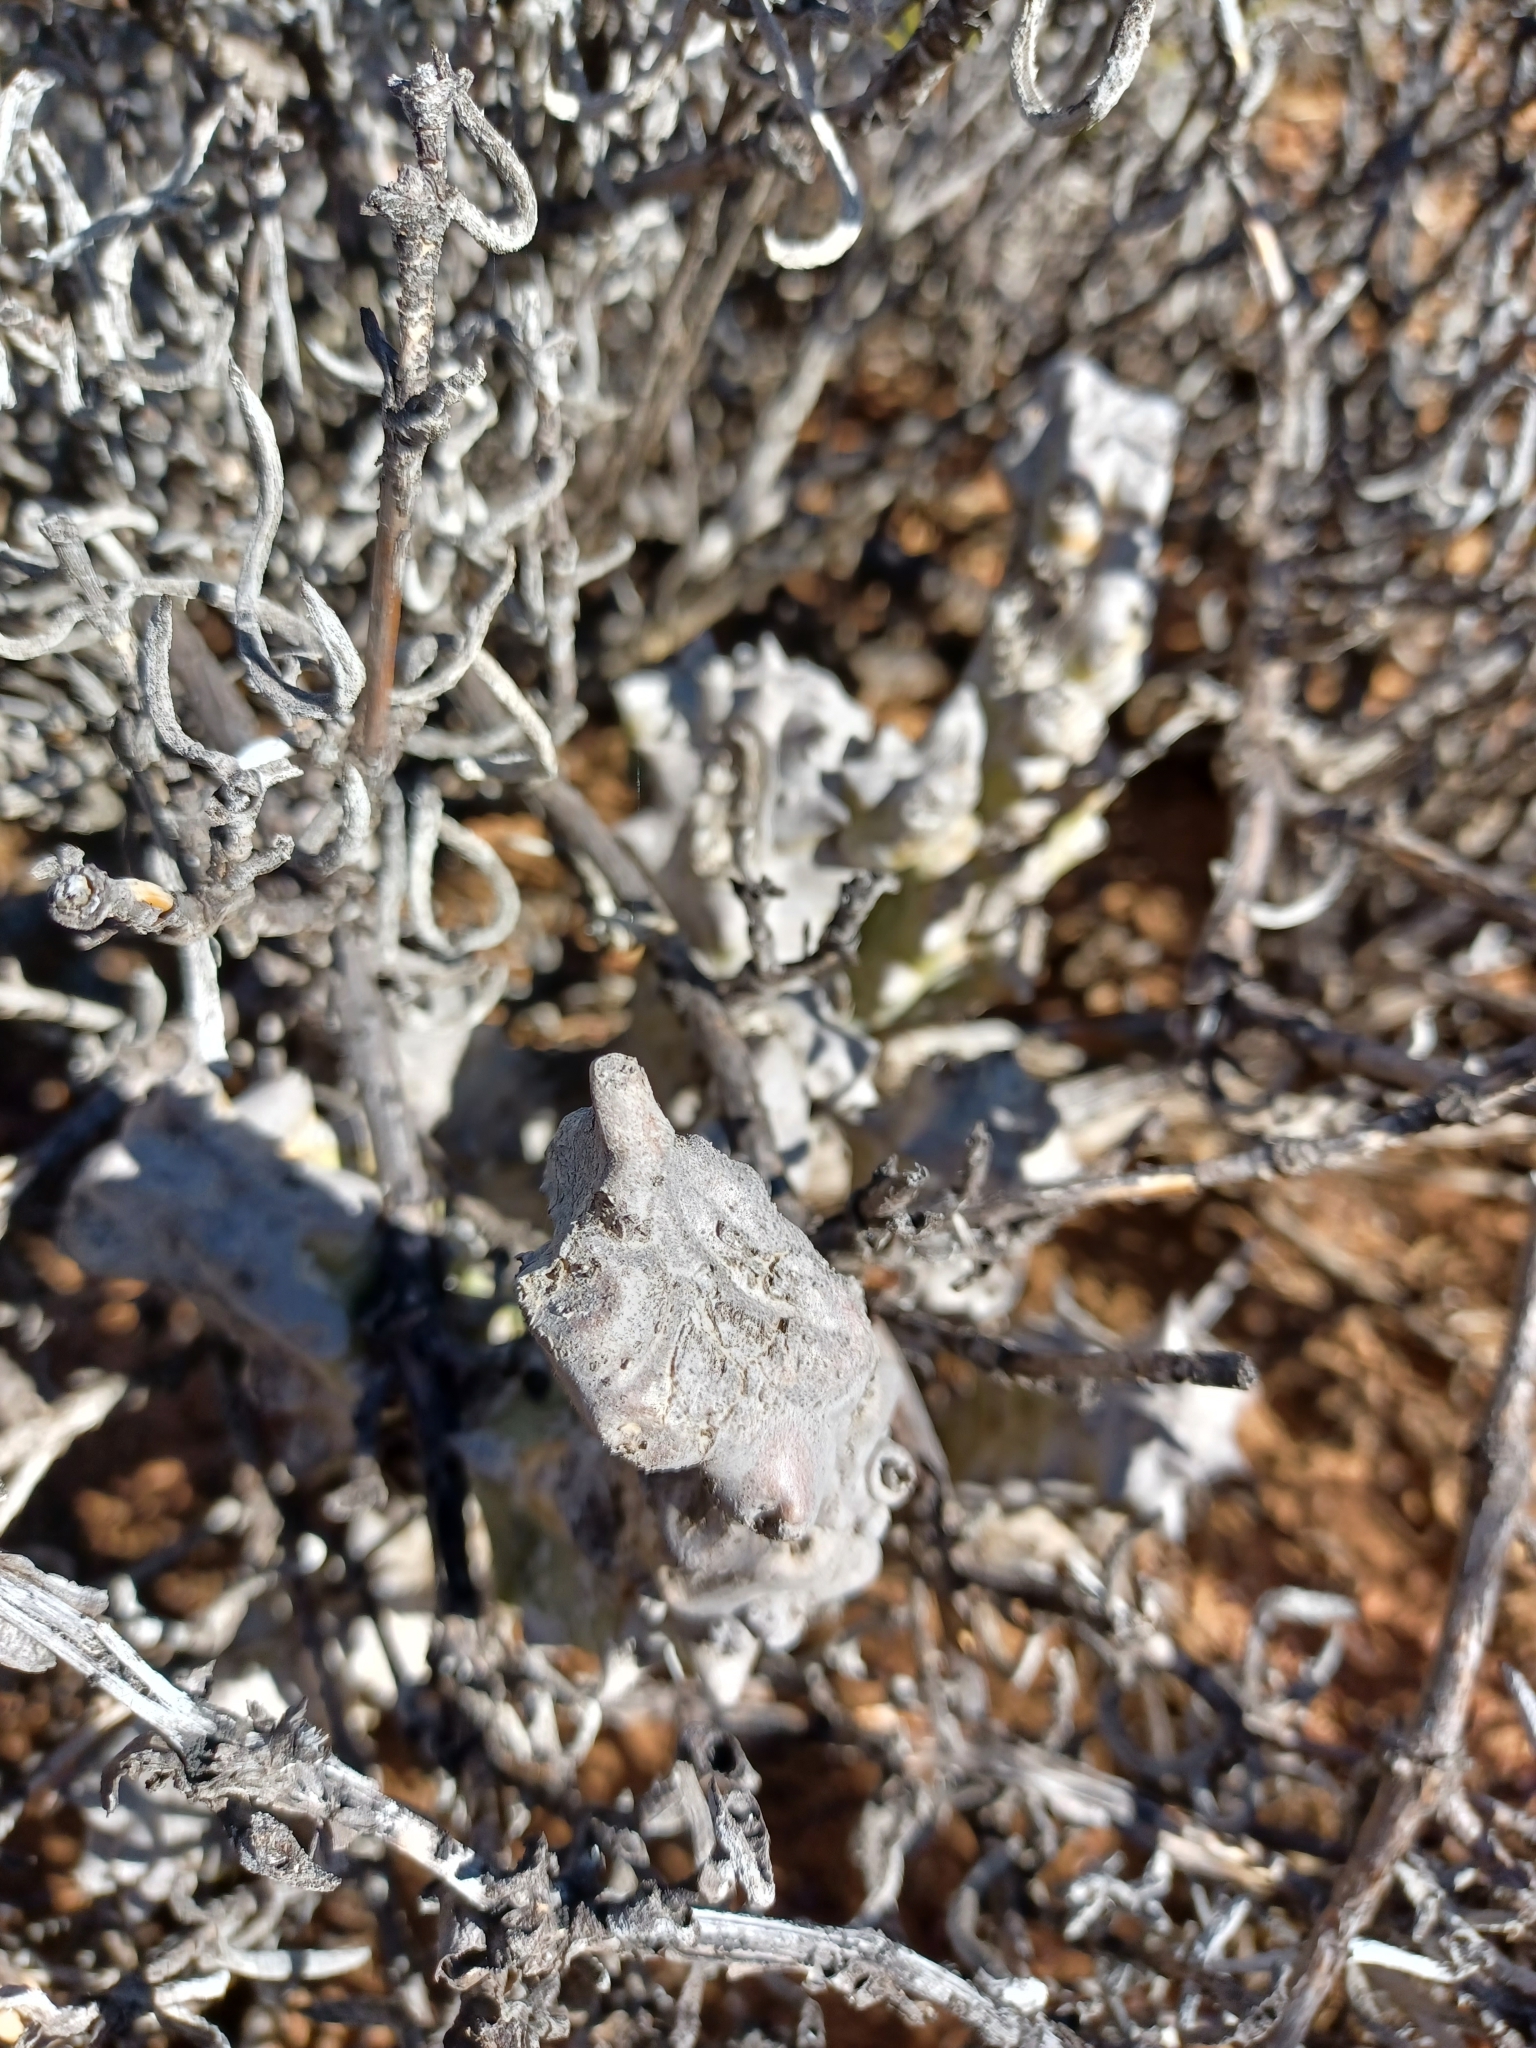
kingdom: Plantae
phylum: Tracheophyta
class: Magnoliopsida
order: Gentianales
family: Apocynaceae
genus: Ceropegia
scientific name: Ceropegia mammillaris
